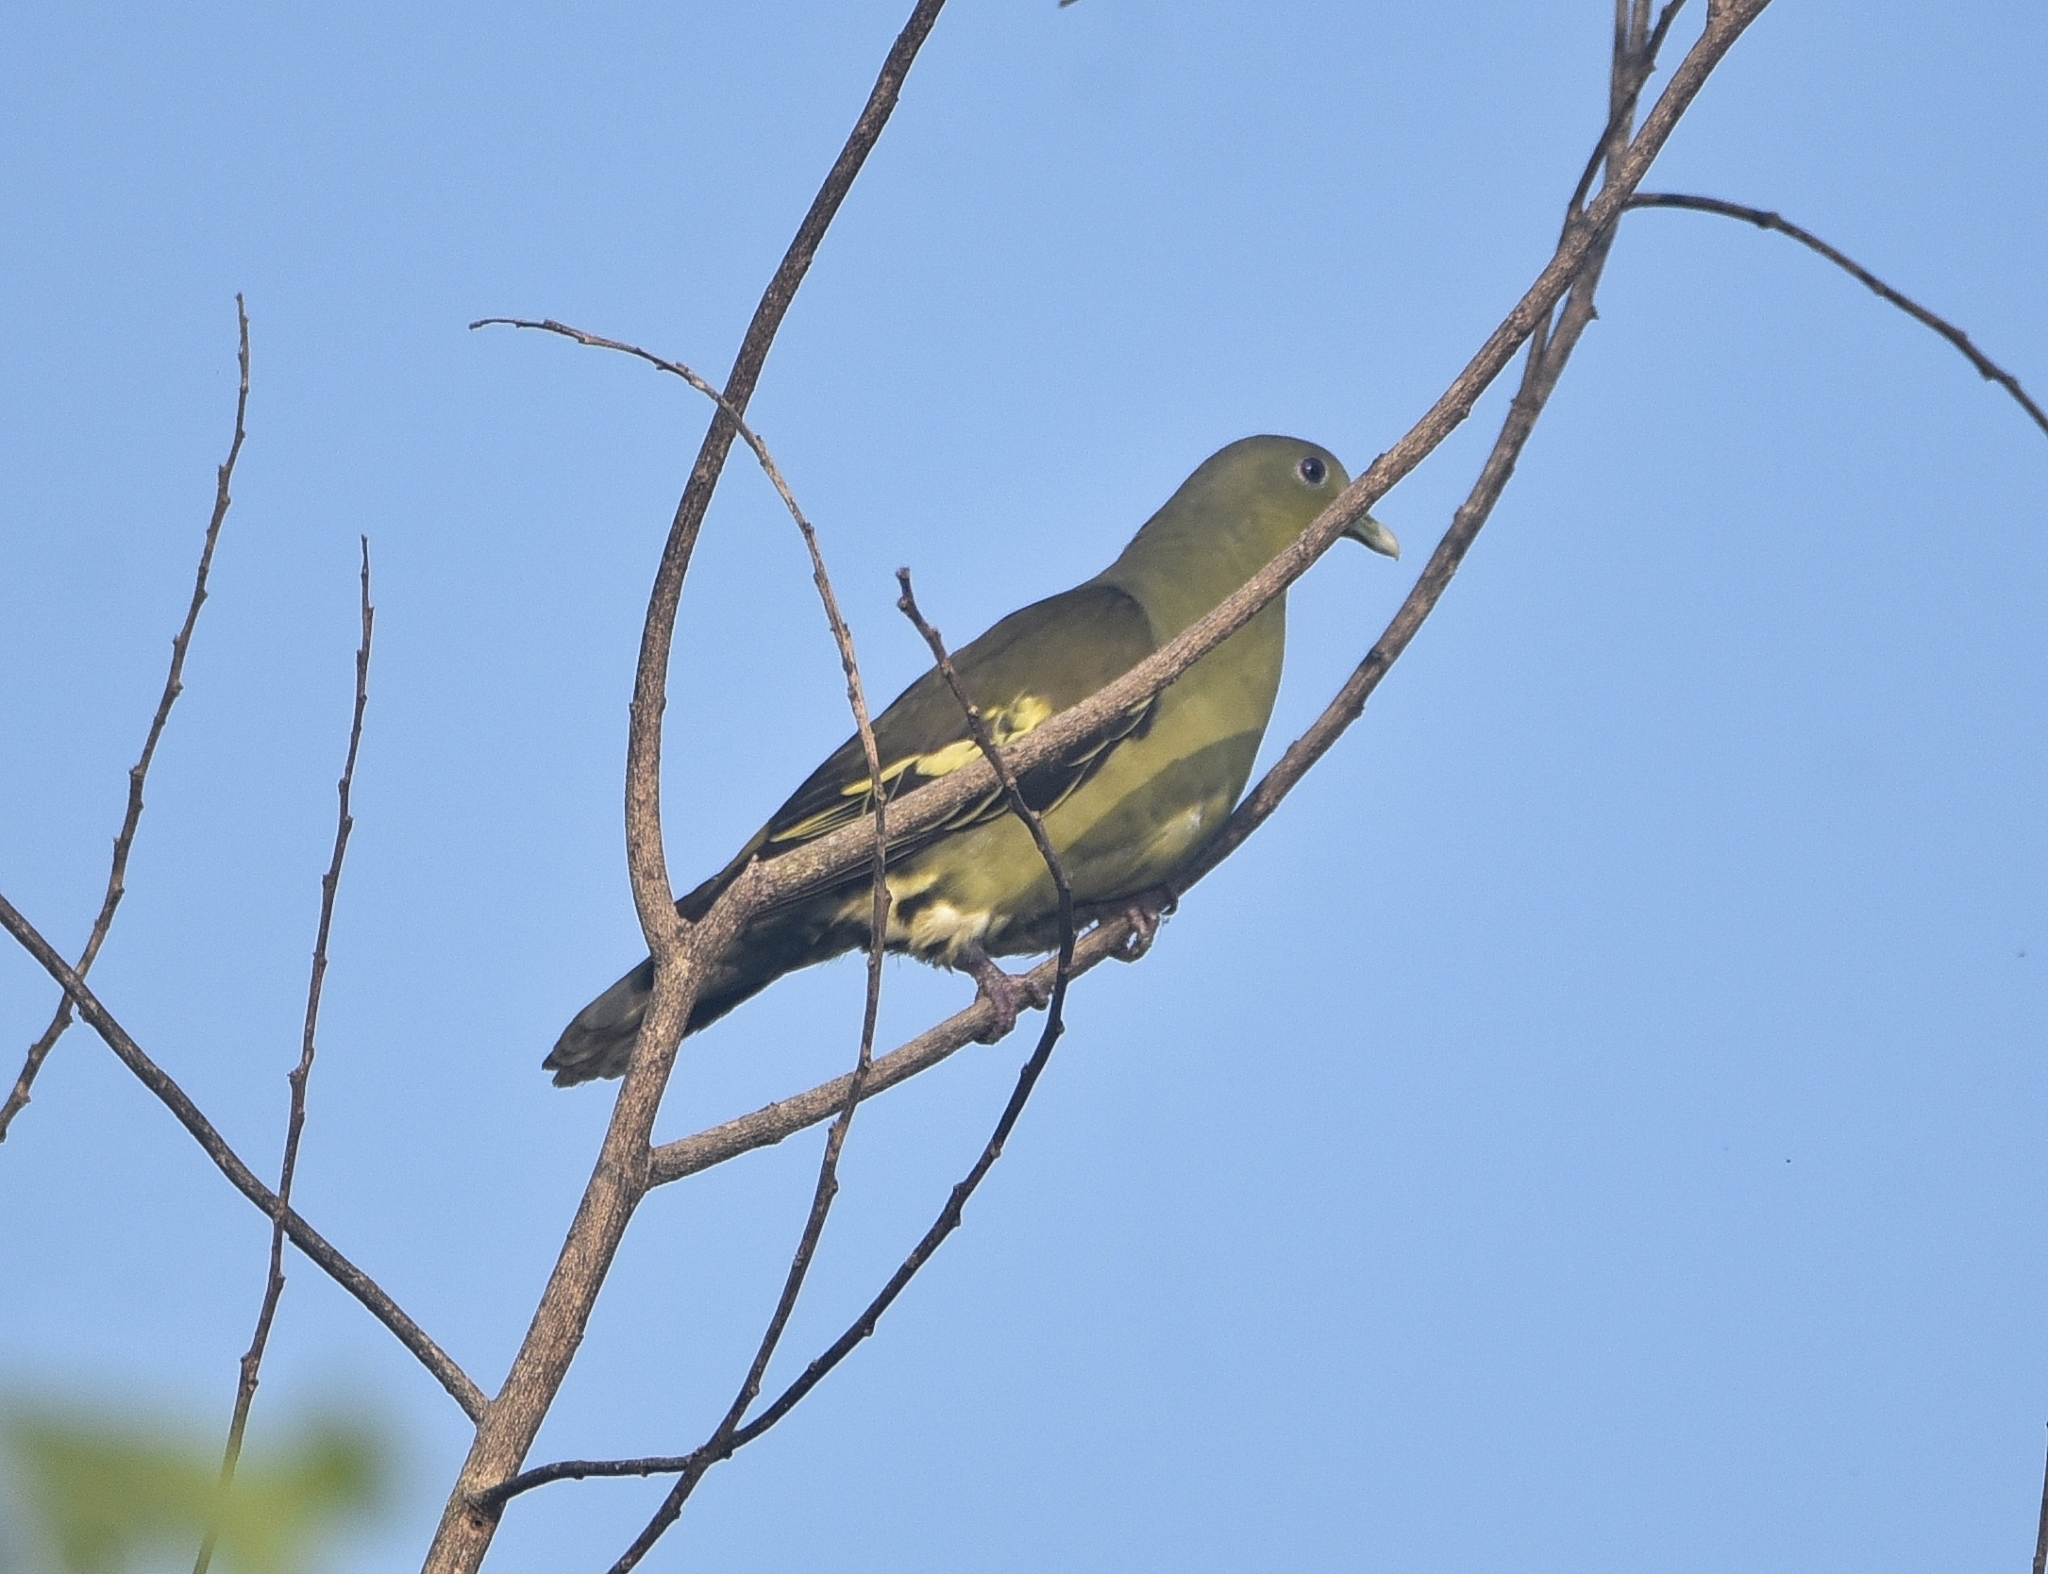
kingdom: Animalia
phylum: Chordata
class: Aves
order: Columbiformes
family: Columbidae
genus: Treron
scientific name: Treron affinis
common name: Grey-fronted green pigeon
